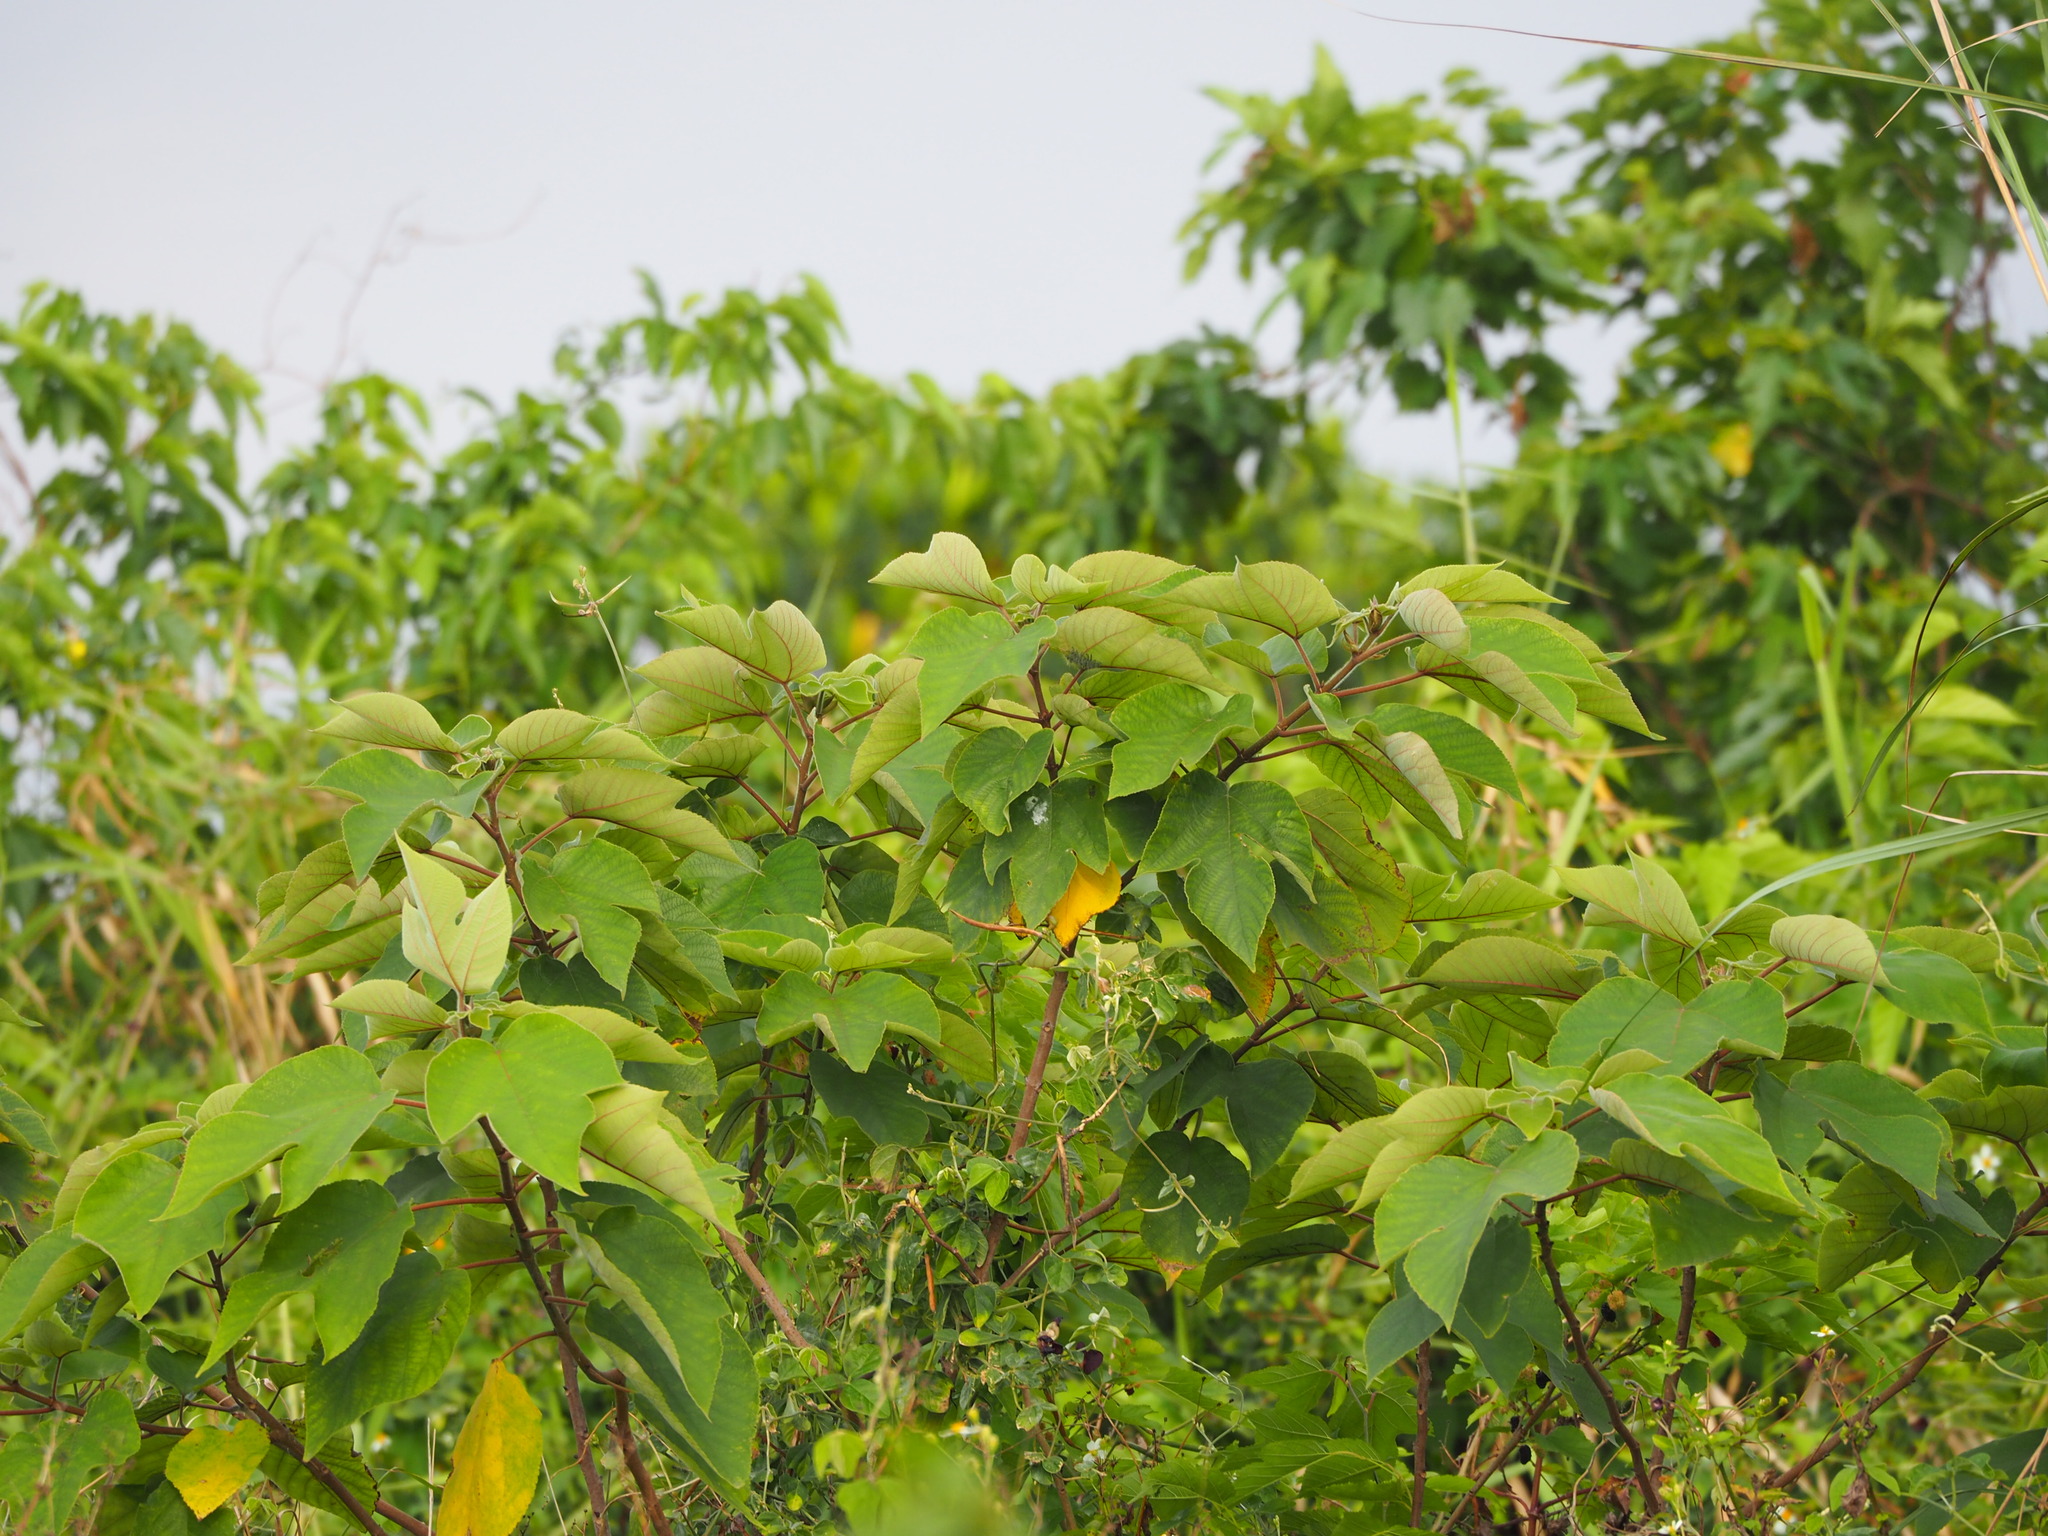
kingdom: Plantae
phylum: Tracheophyta
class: Magnoliopsida
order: Rosales
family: Moraceae
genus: Broussonetia
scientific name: Broussonetia papyrifera
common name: Paper mulberry
